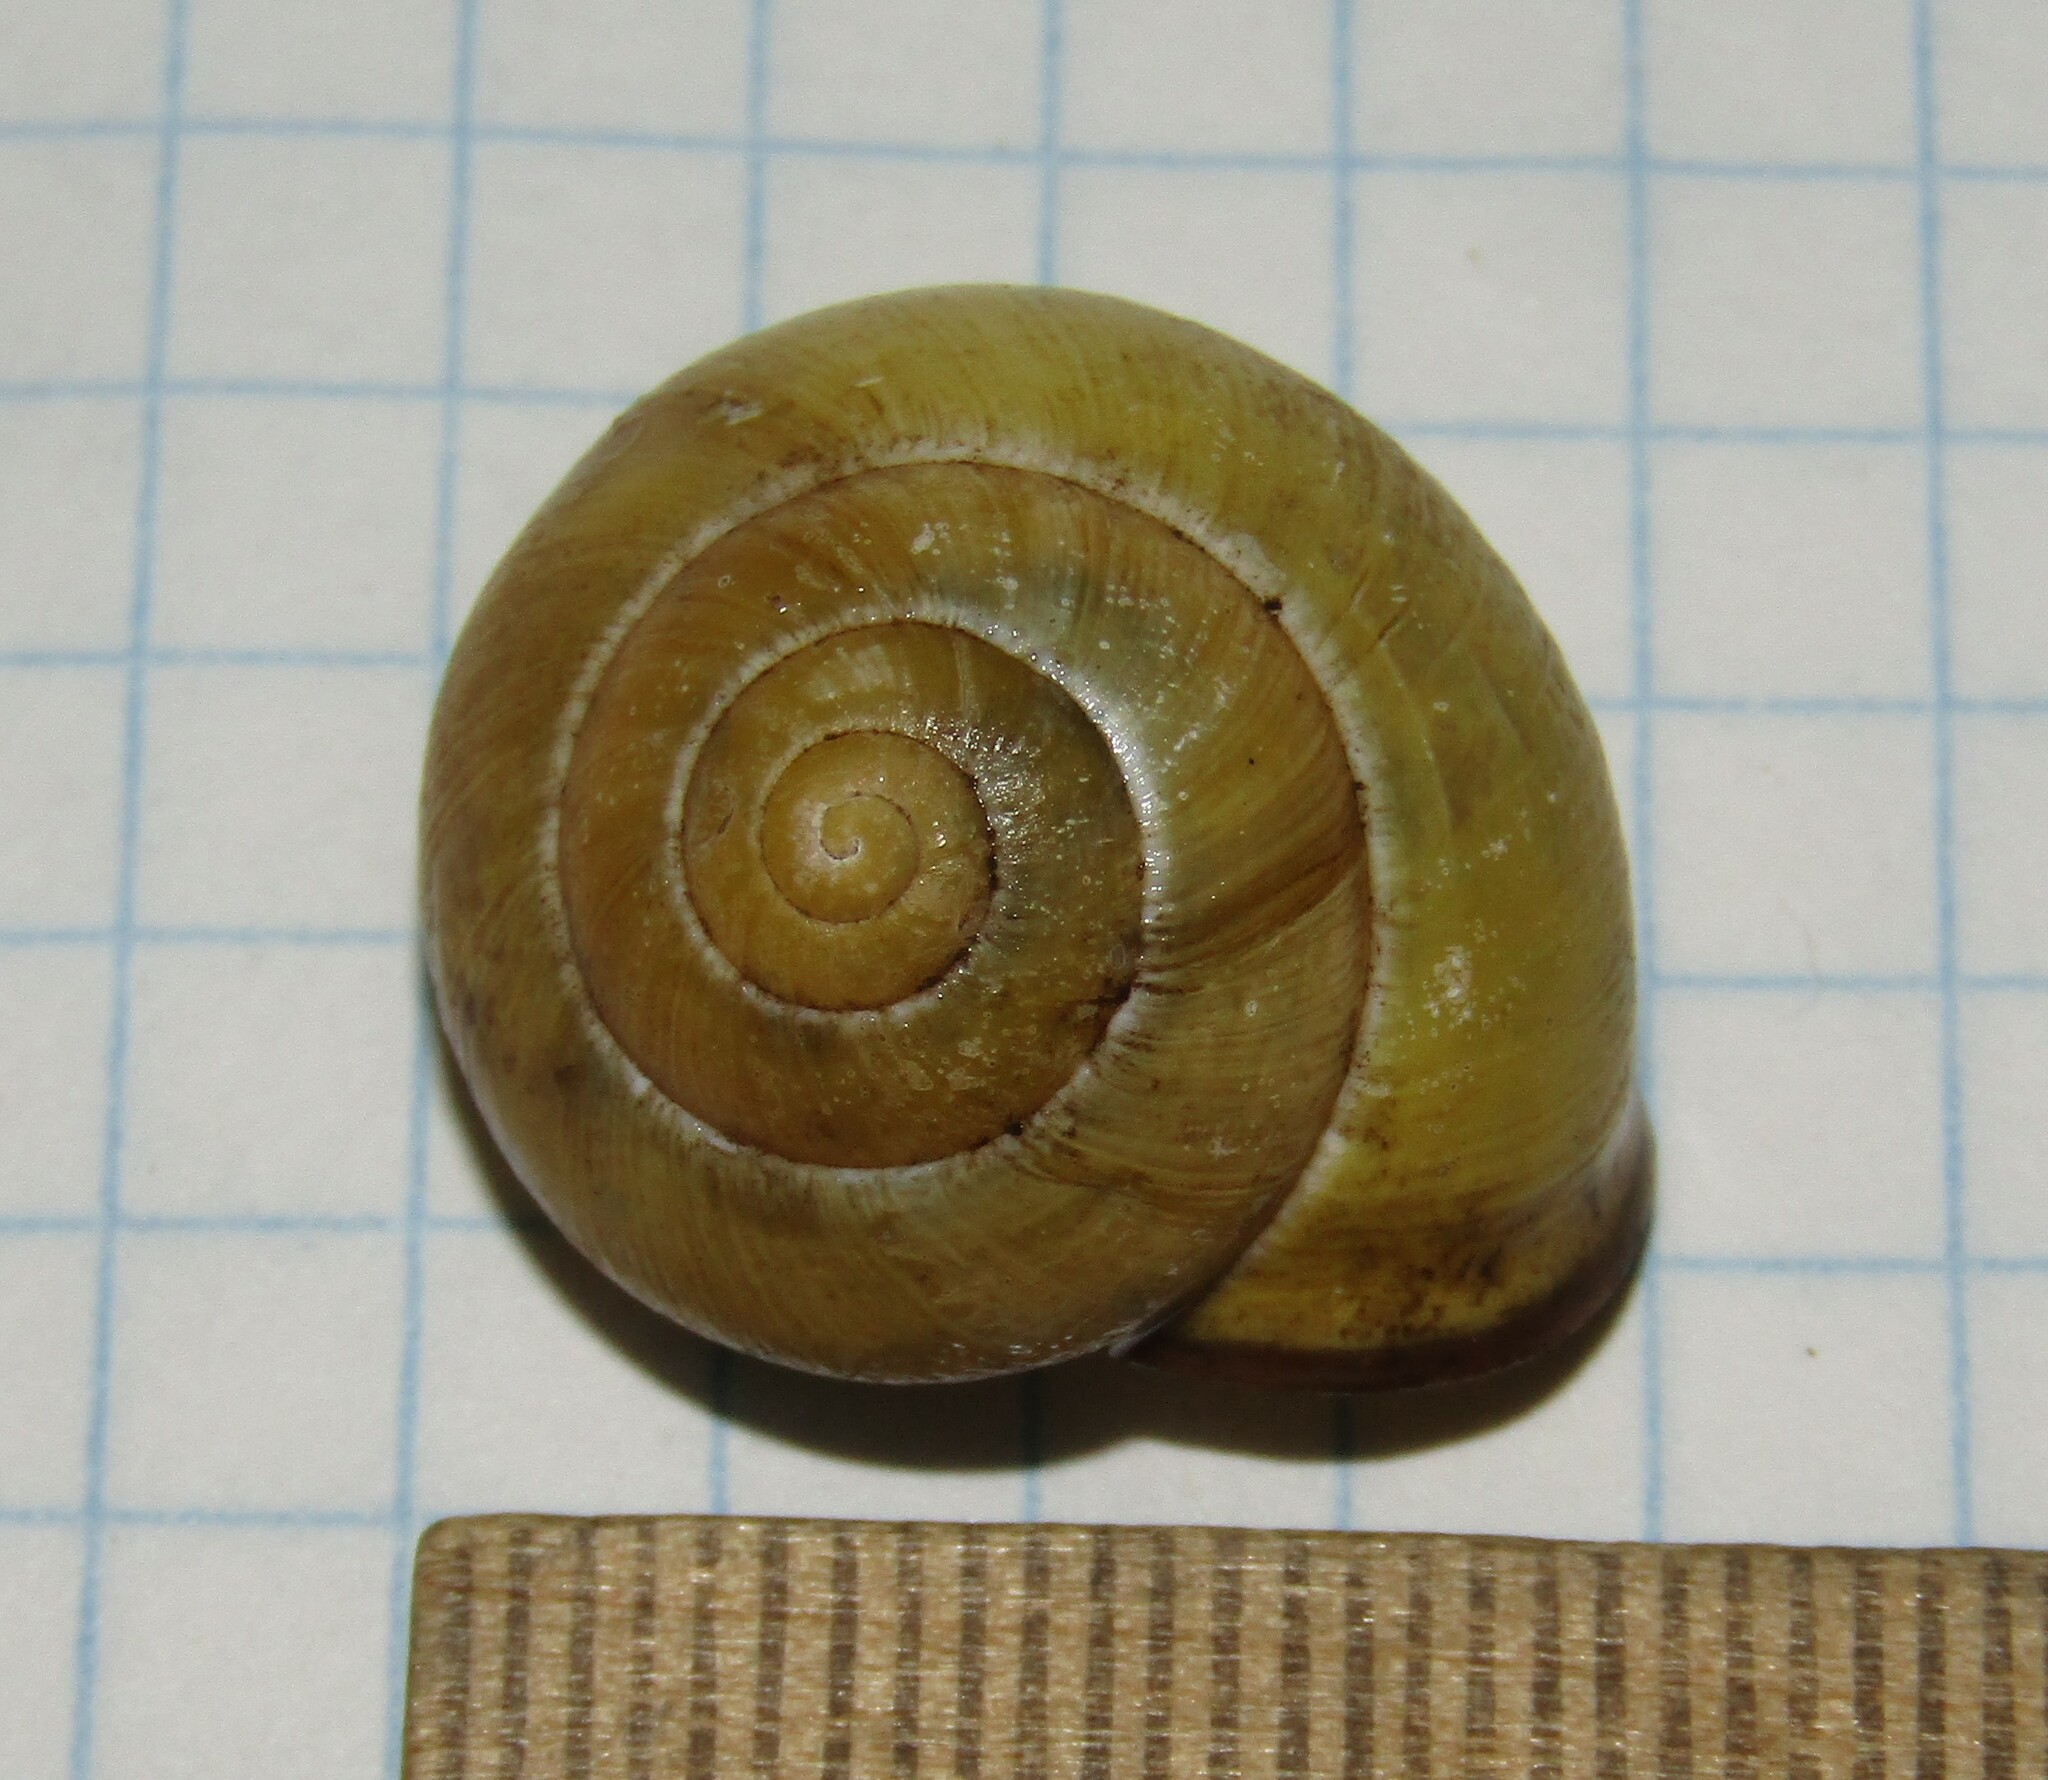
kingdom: Animalia
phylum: Mollusca
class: Gastropoda
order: Stylommatophora
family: Helicidae
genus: Cepaea
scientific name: Cepaea nemoralis
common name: Grovesnail
